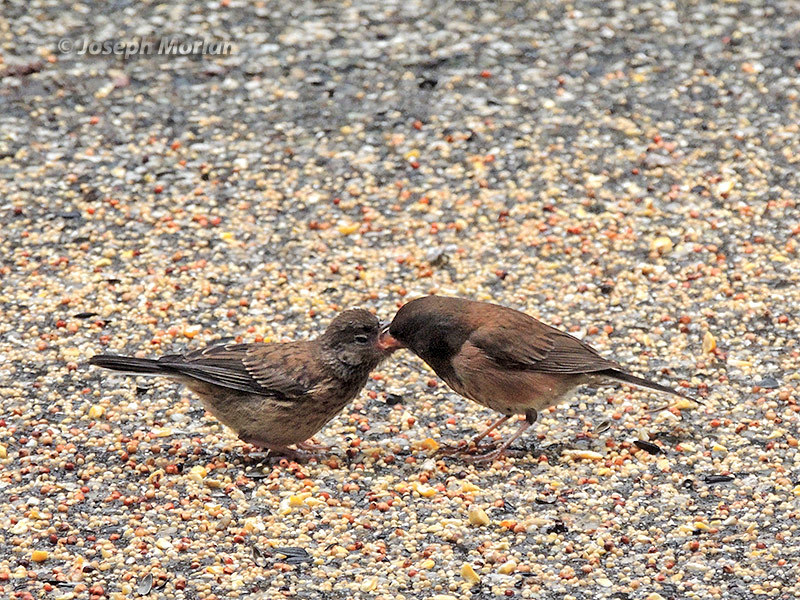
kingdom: Animalia
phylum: Chordata
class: Aves
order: Passeriformes
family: Passerellidae
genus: Junco
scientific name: Junco hyemalis
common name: Dark-eyed junco
